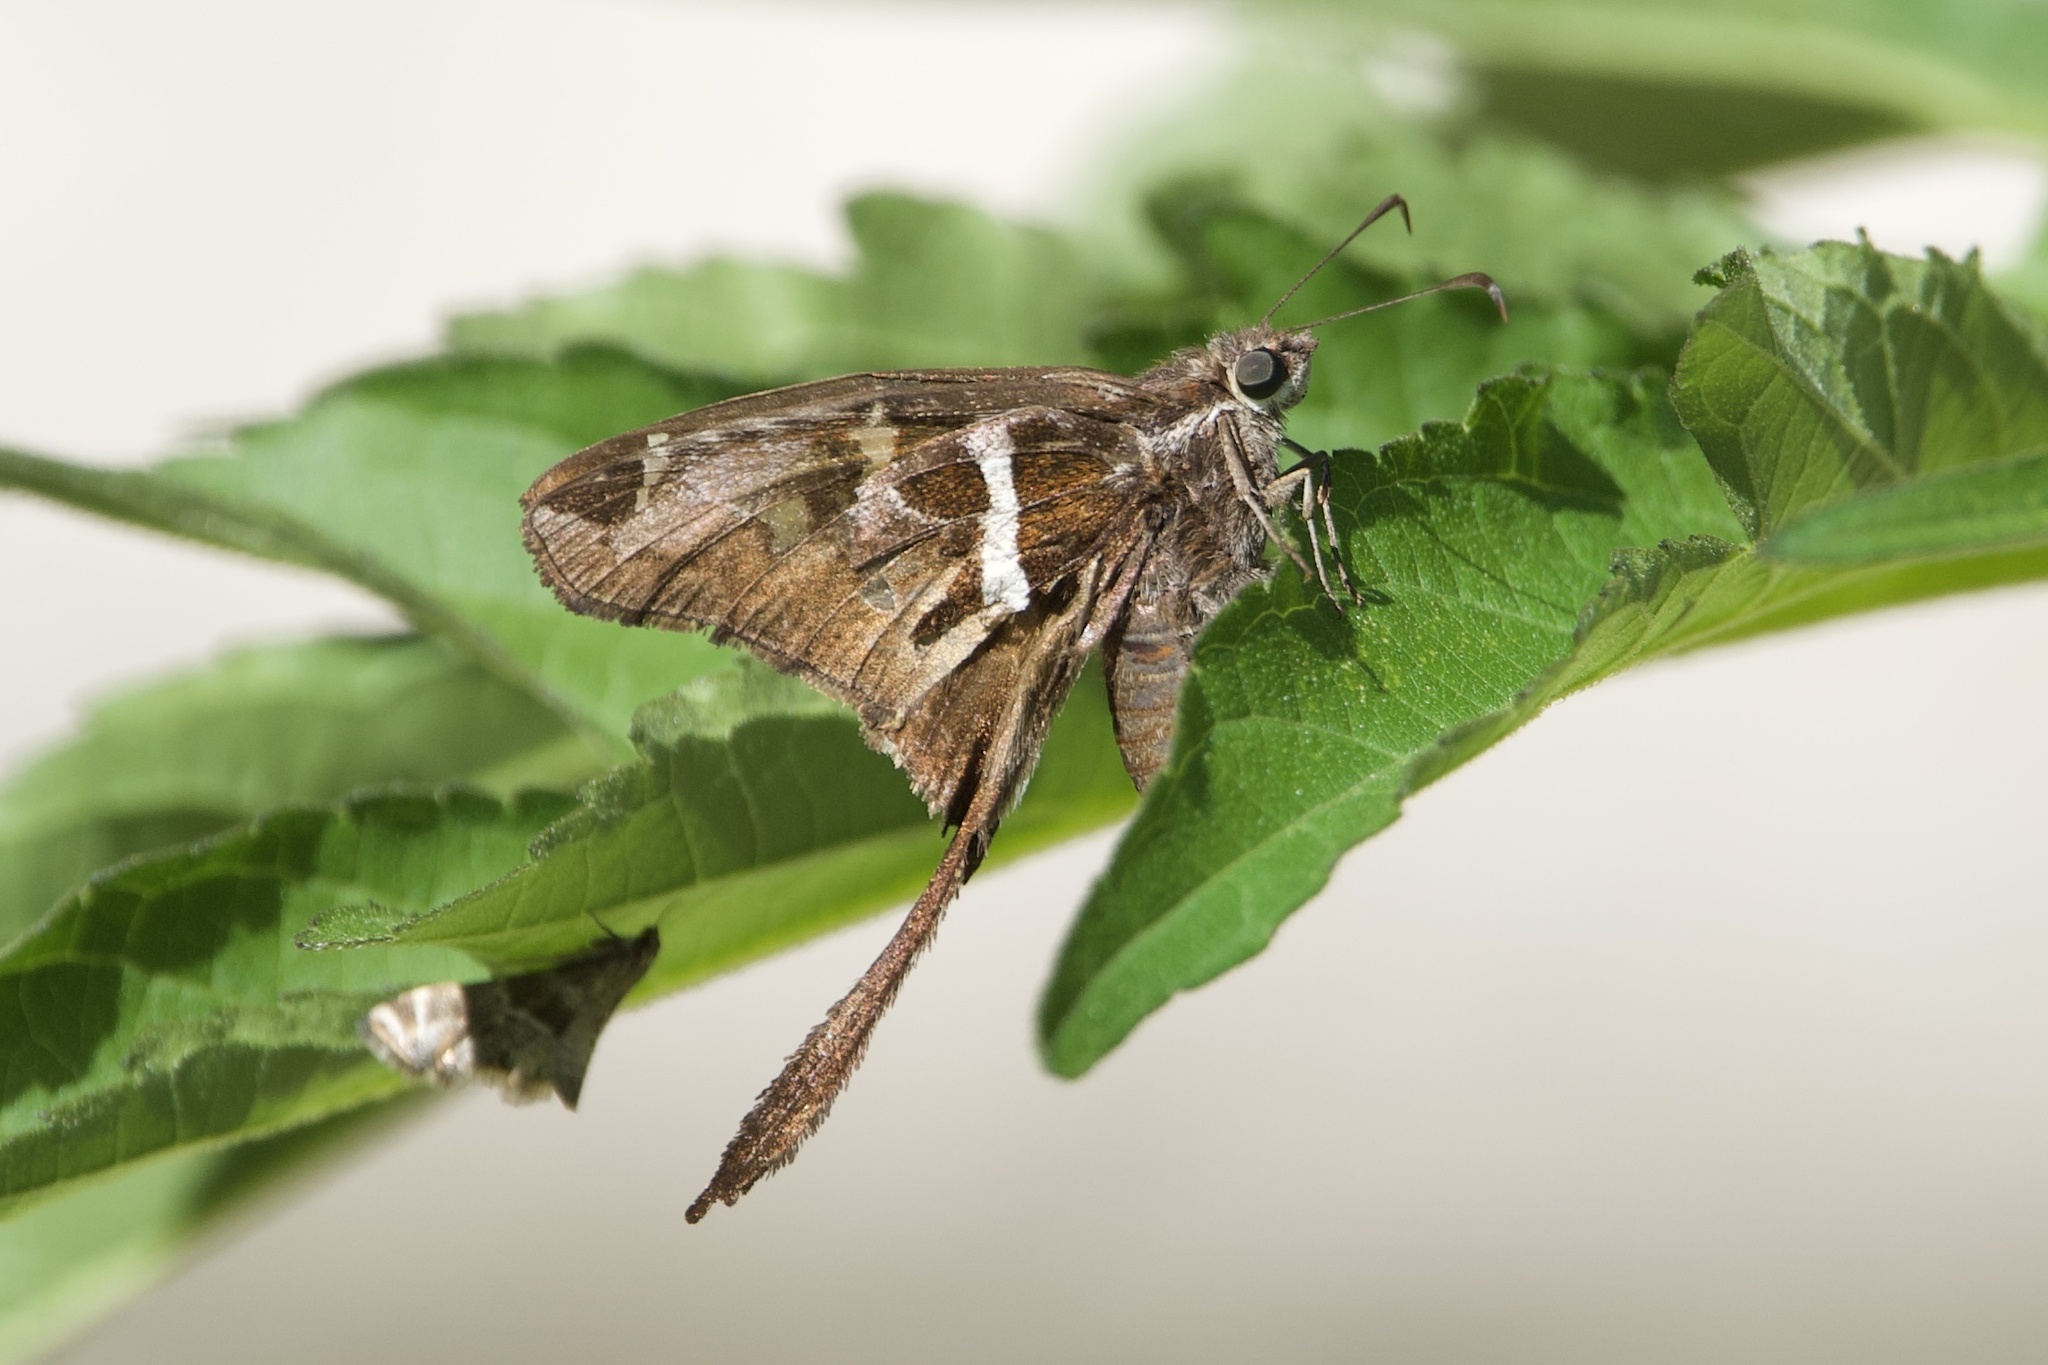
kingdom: Animalia
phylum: Arthropoda
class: Insecta
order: Lepidoptera
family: Hesperiidae
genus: Chioides
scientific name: Chioides catillus
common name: Silverbanded skipper
